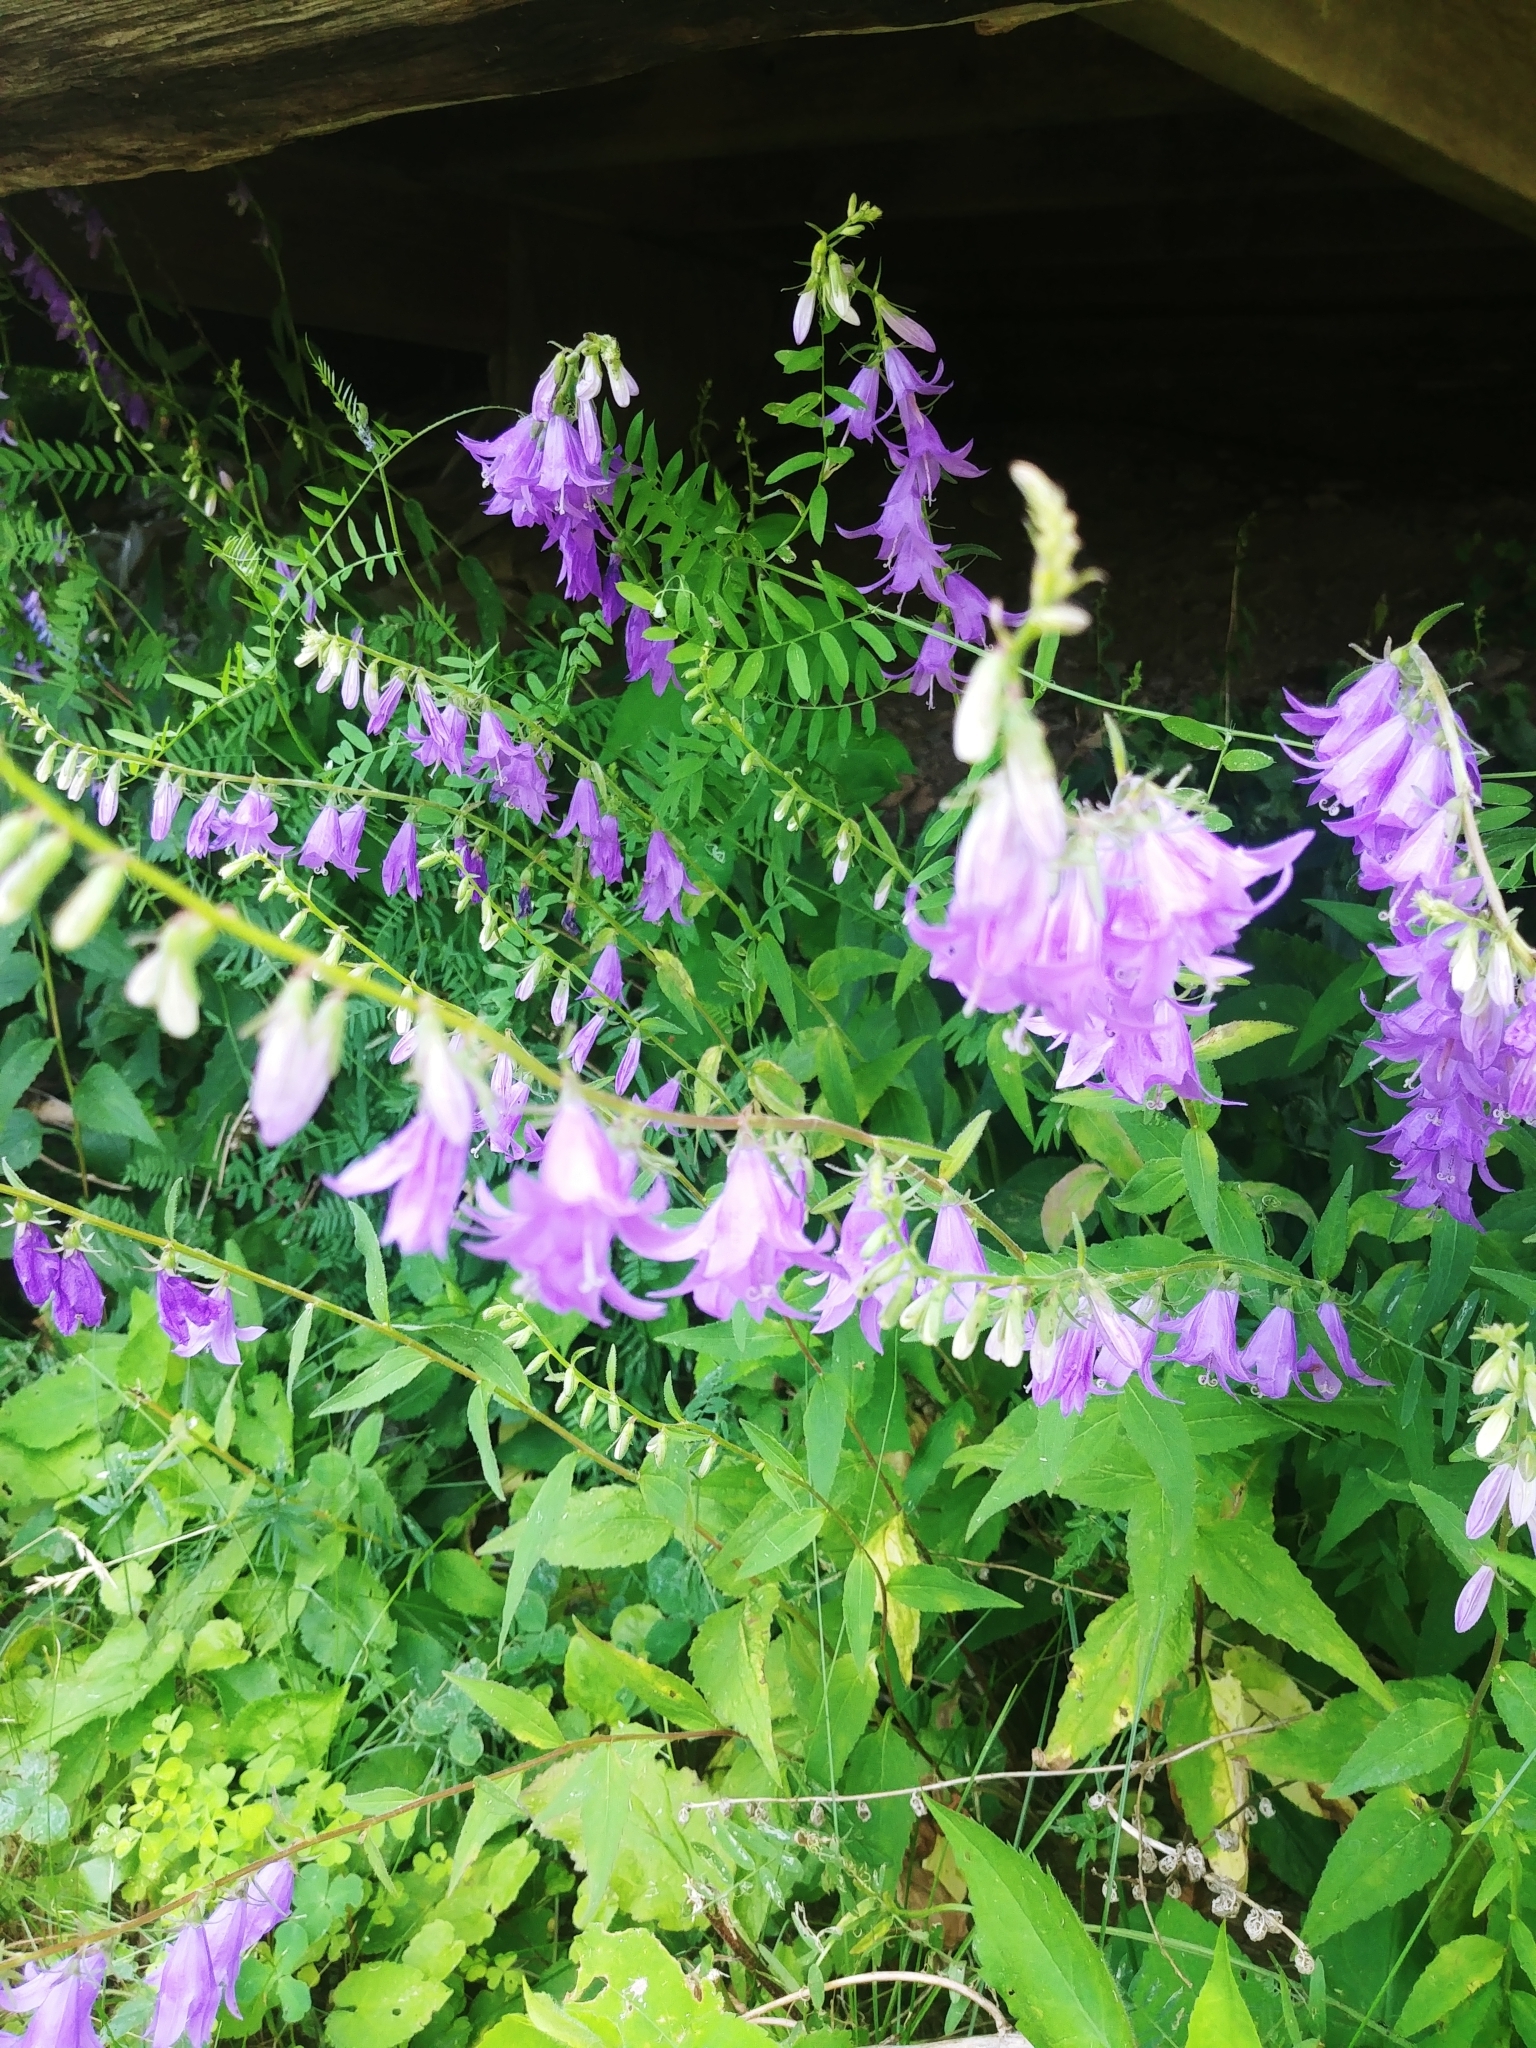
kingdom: Plantae
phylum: Tracheophyta
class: Magnoliopsida
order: Asterales
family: Campanulaceae
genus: Campanula
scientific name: Campanula rapunculoides
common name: Creeping bellflower
